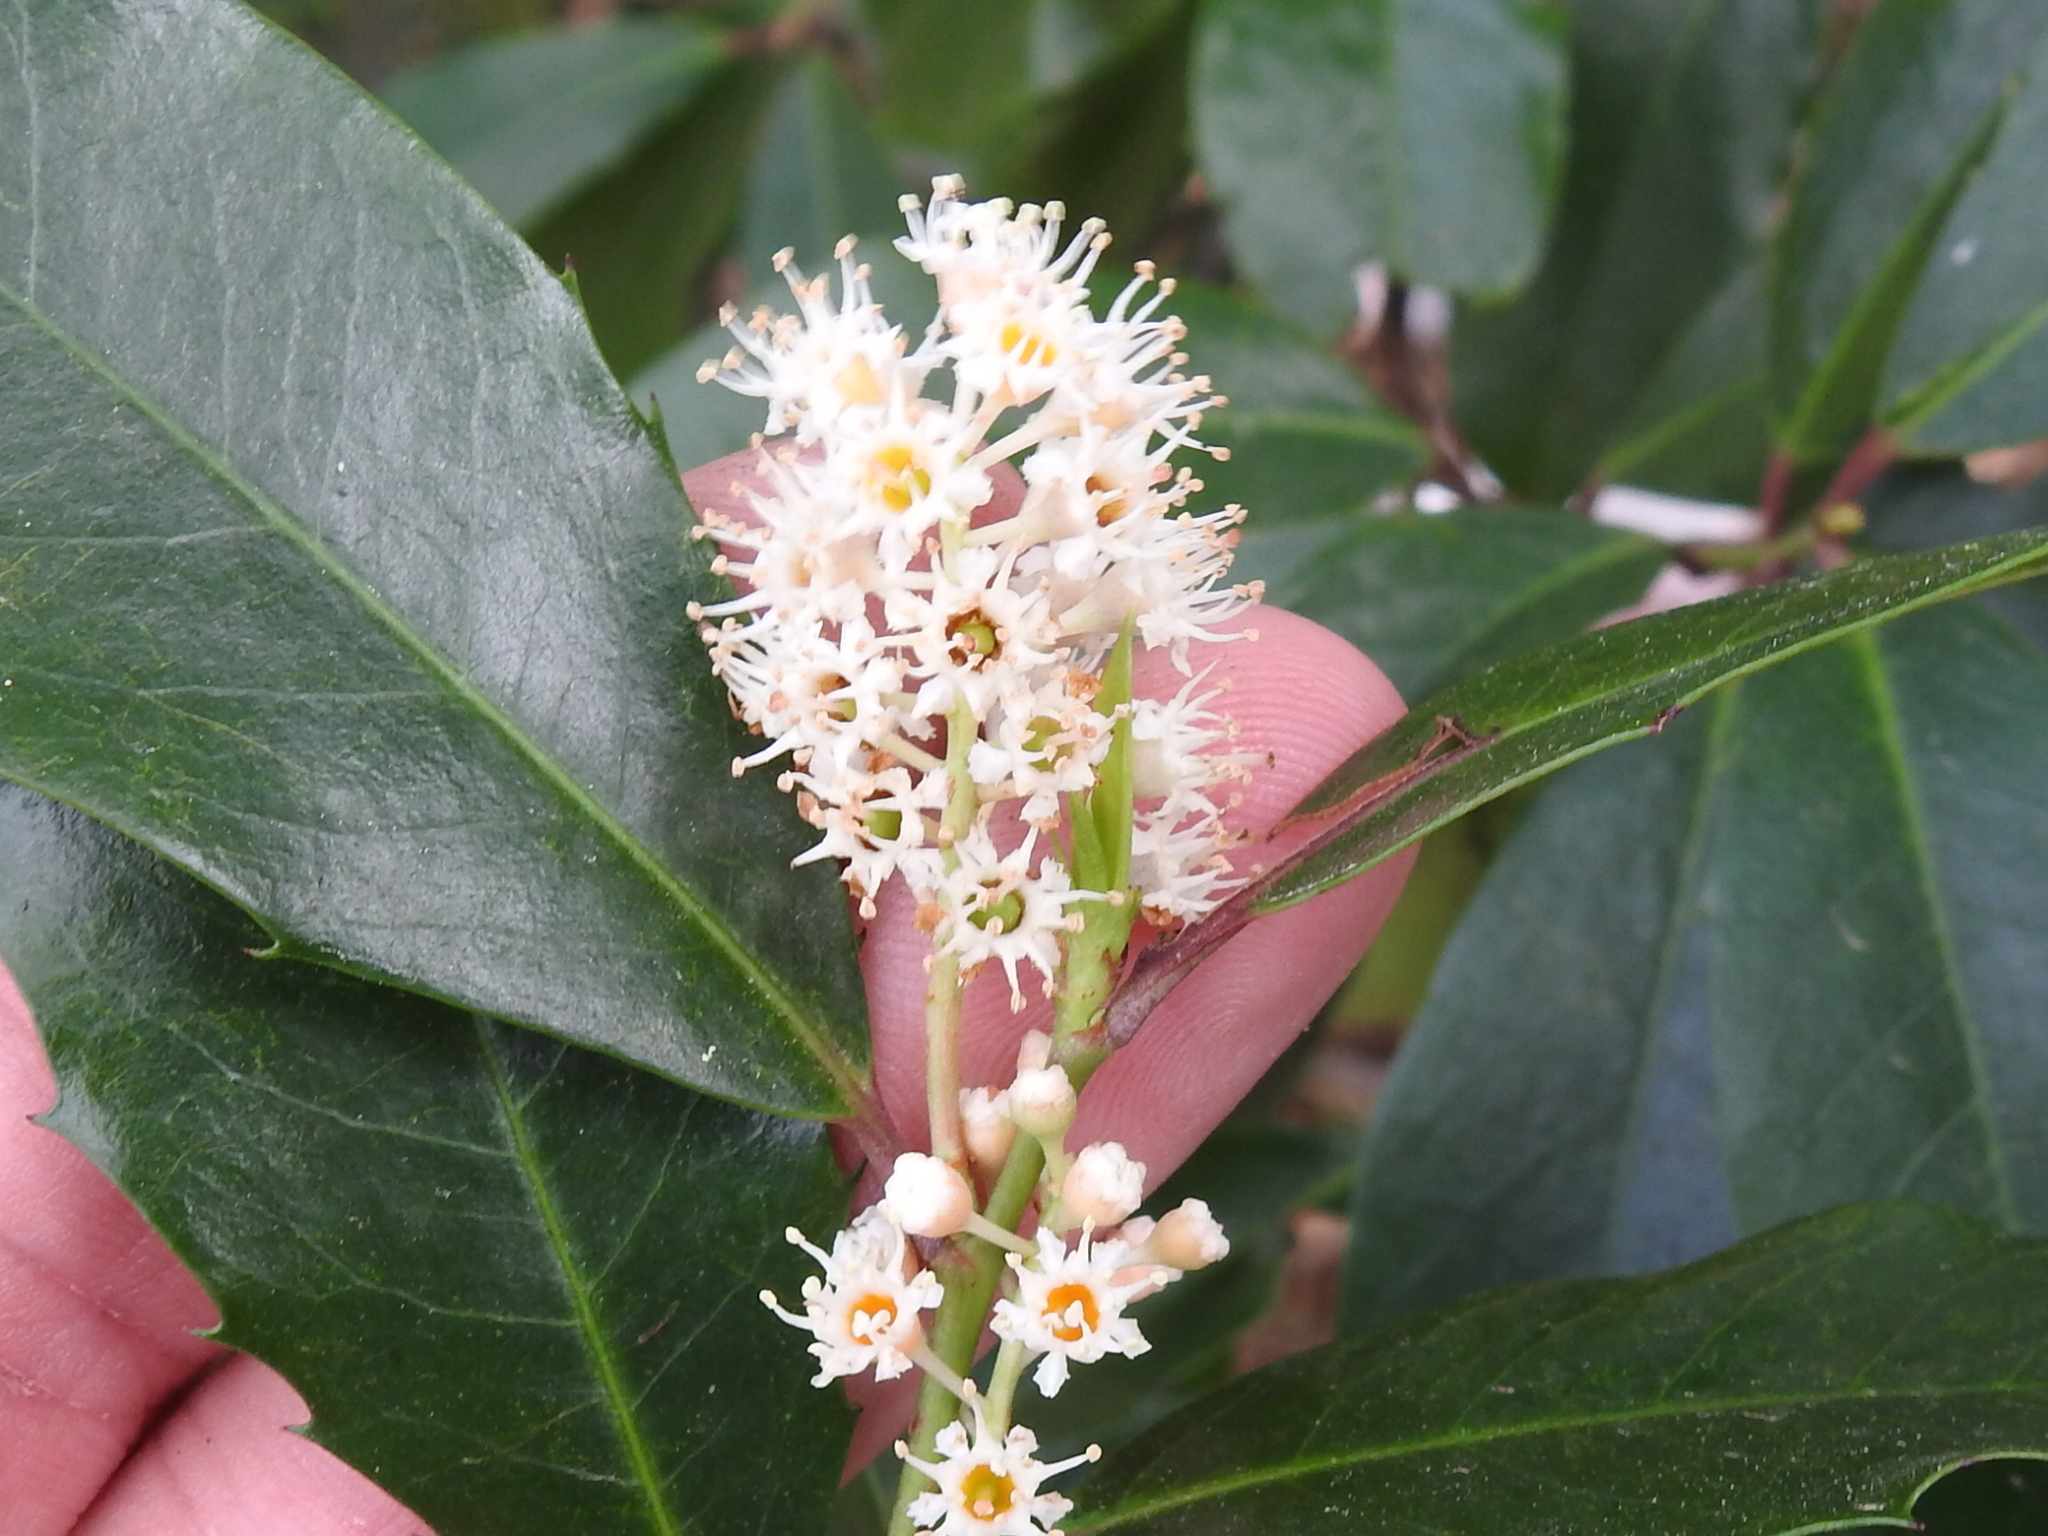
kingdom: Plantae
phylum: Tracheophyta
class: Magnoliopsida
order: Rosales
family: Rosaceae
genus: Prunus
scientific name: Prunus caroliniana
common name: Carolina laurel cherry
